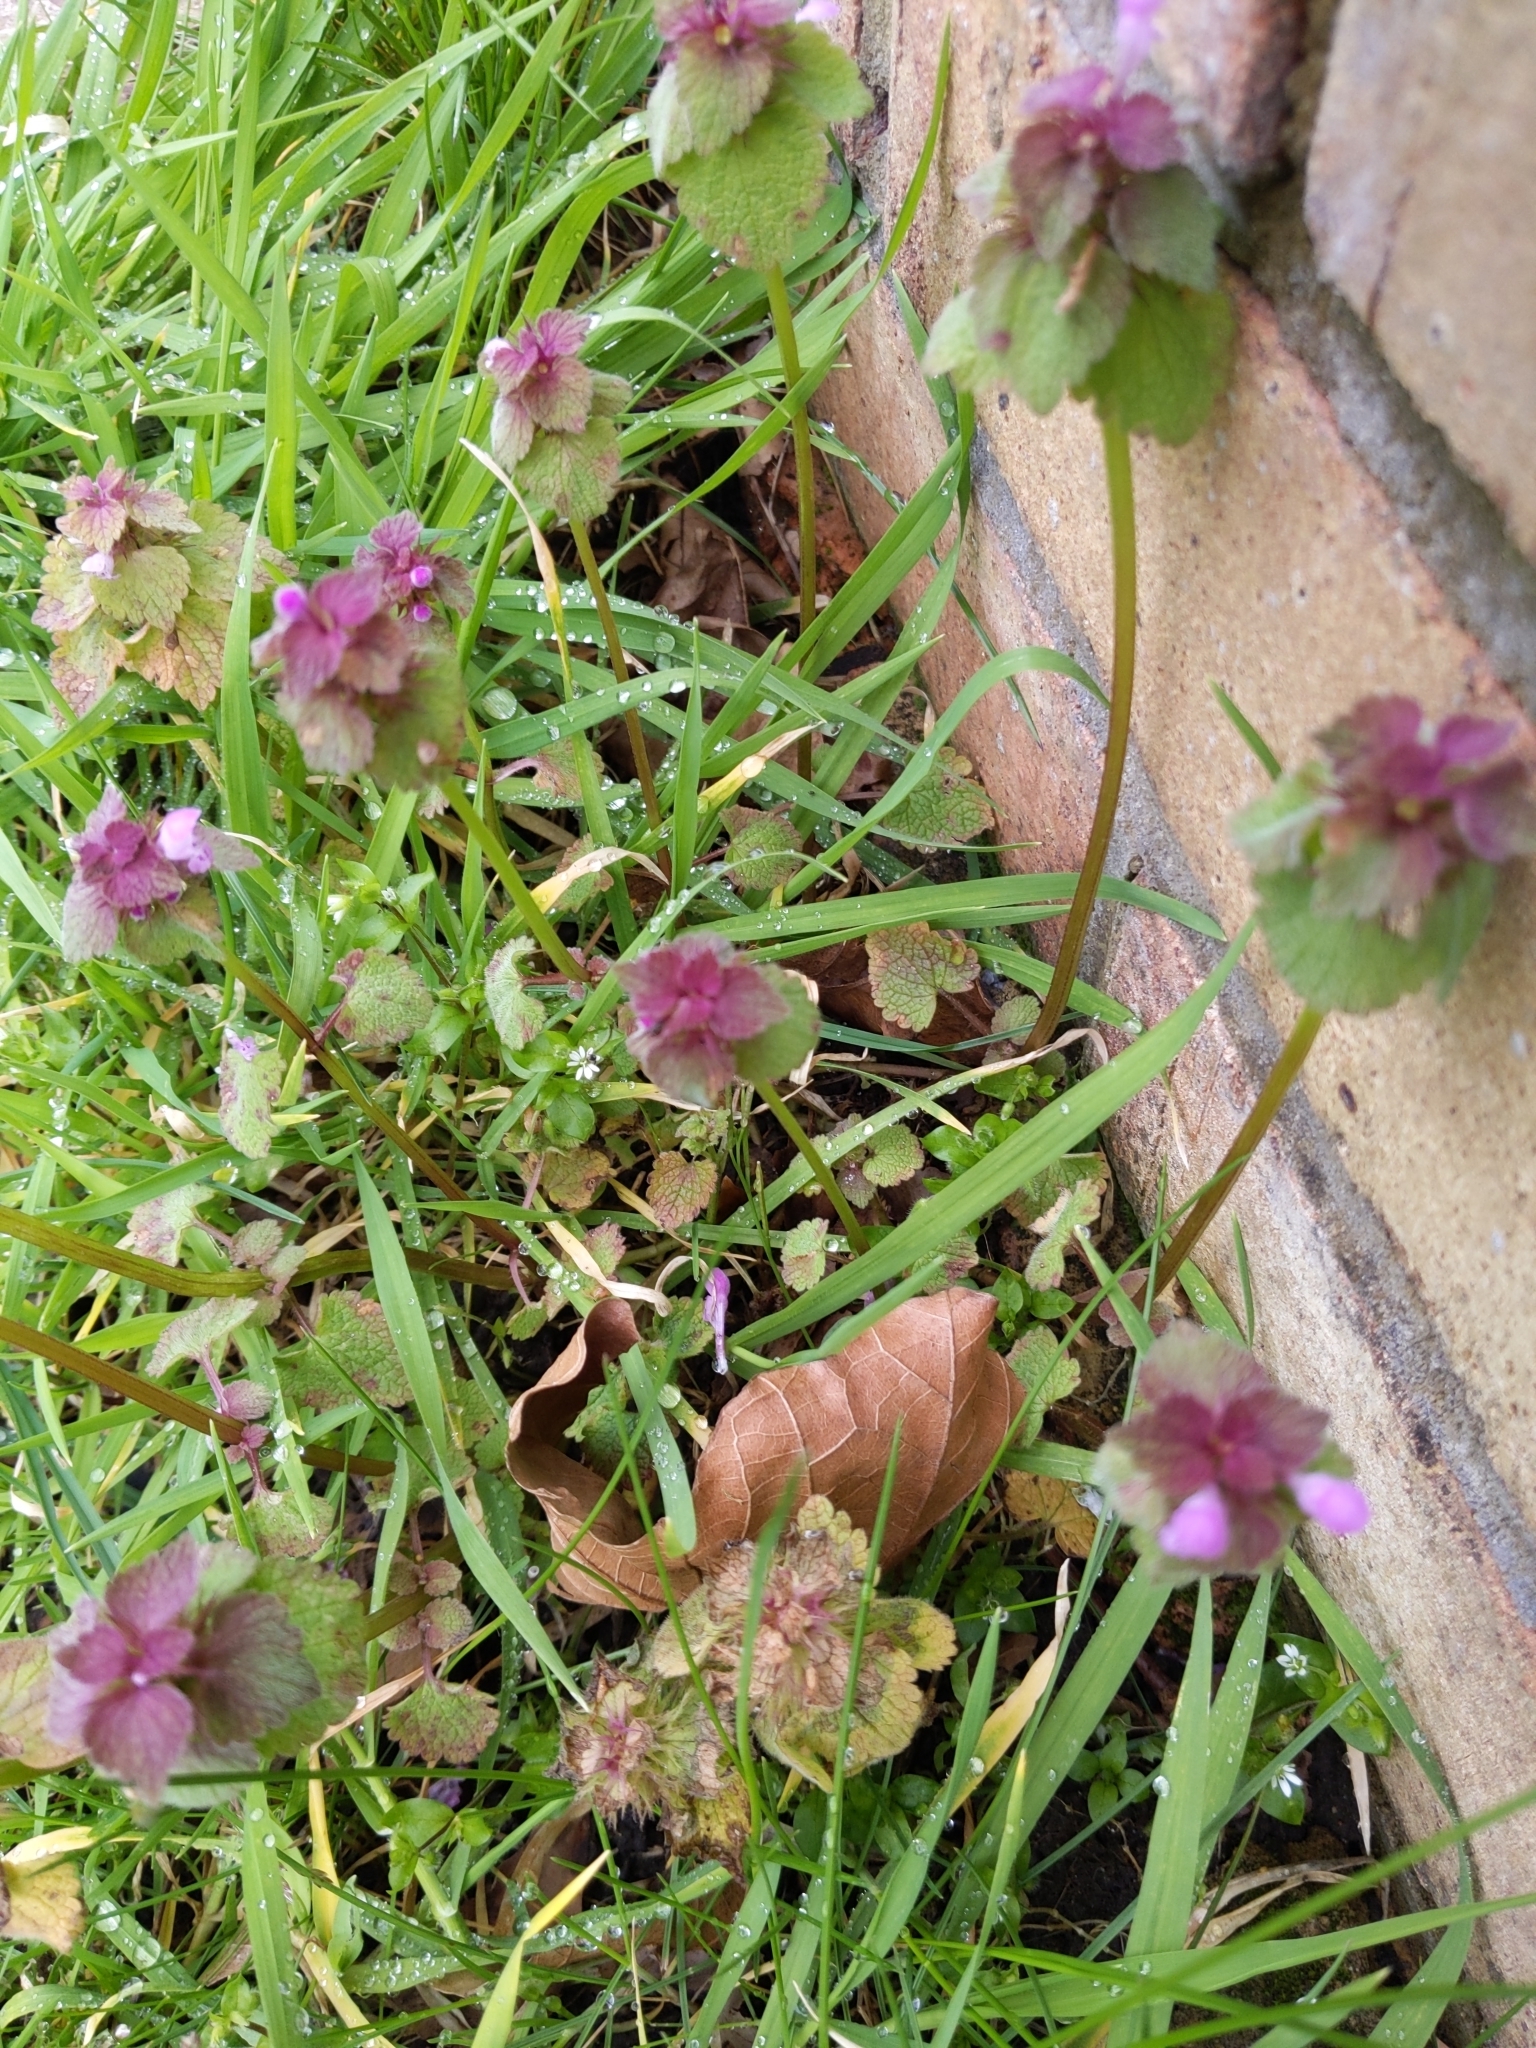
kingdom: Plantae
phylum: Tracheophyta
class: Magnoliopsida
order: Lamiales
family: Lamiaceae
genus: Lamium
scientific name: Lamium purpureum
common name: Red dead-nettle
